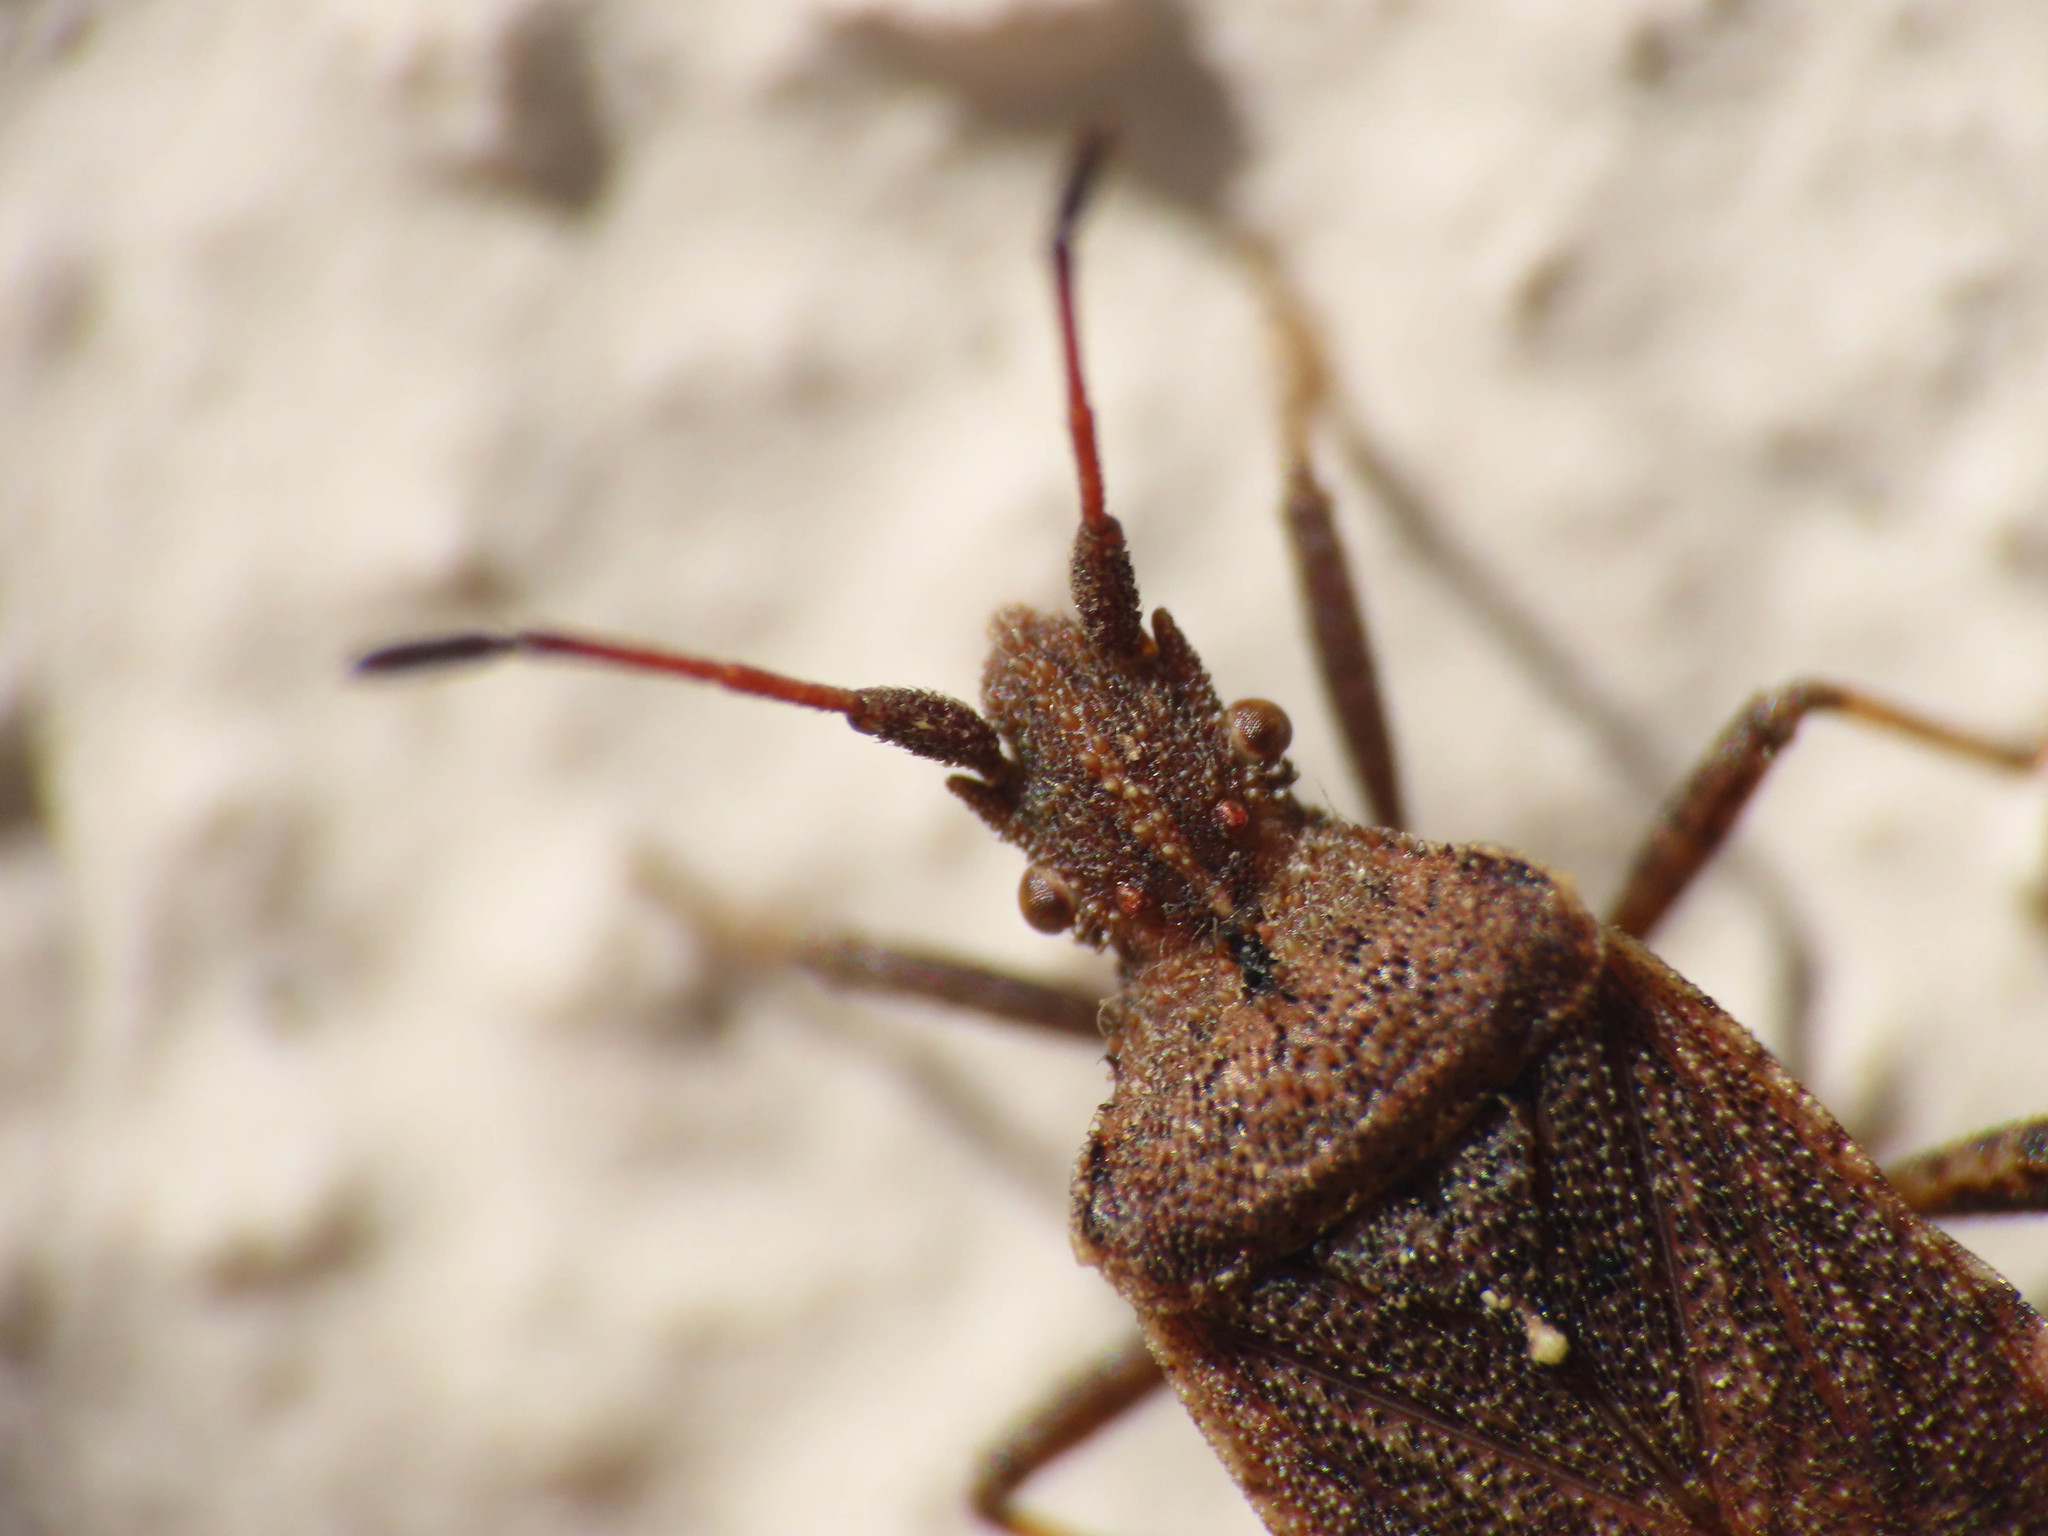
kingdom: Animalia
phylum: Arthropoda
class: Insecta
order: Hemiptera
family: Coreidae
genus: Anoplocerus
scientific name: Anoplocerus elevatus
